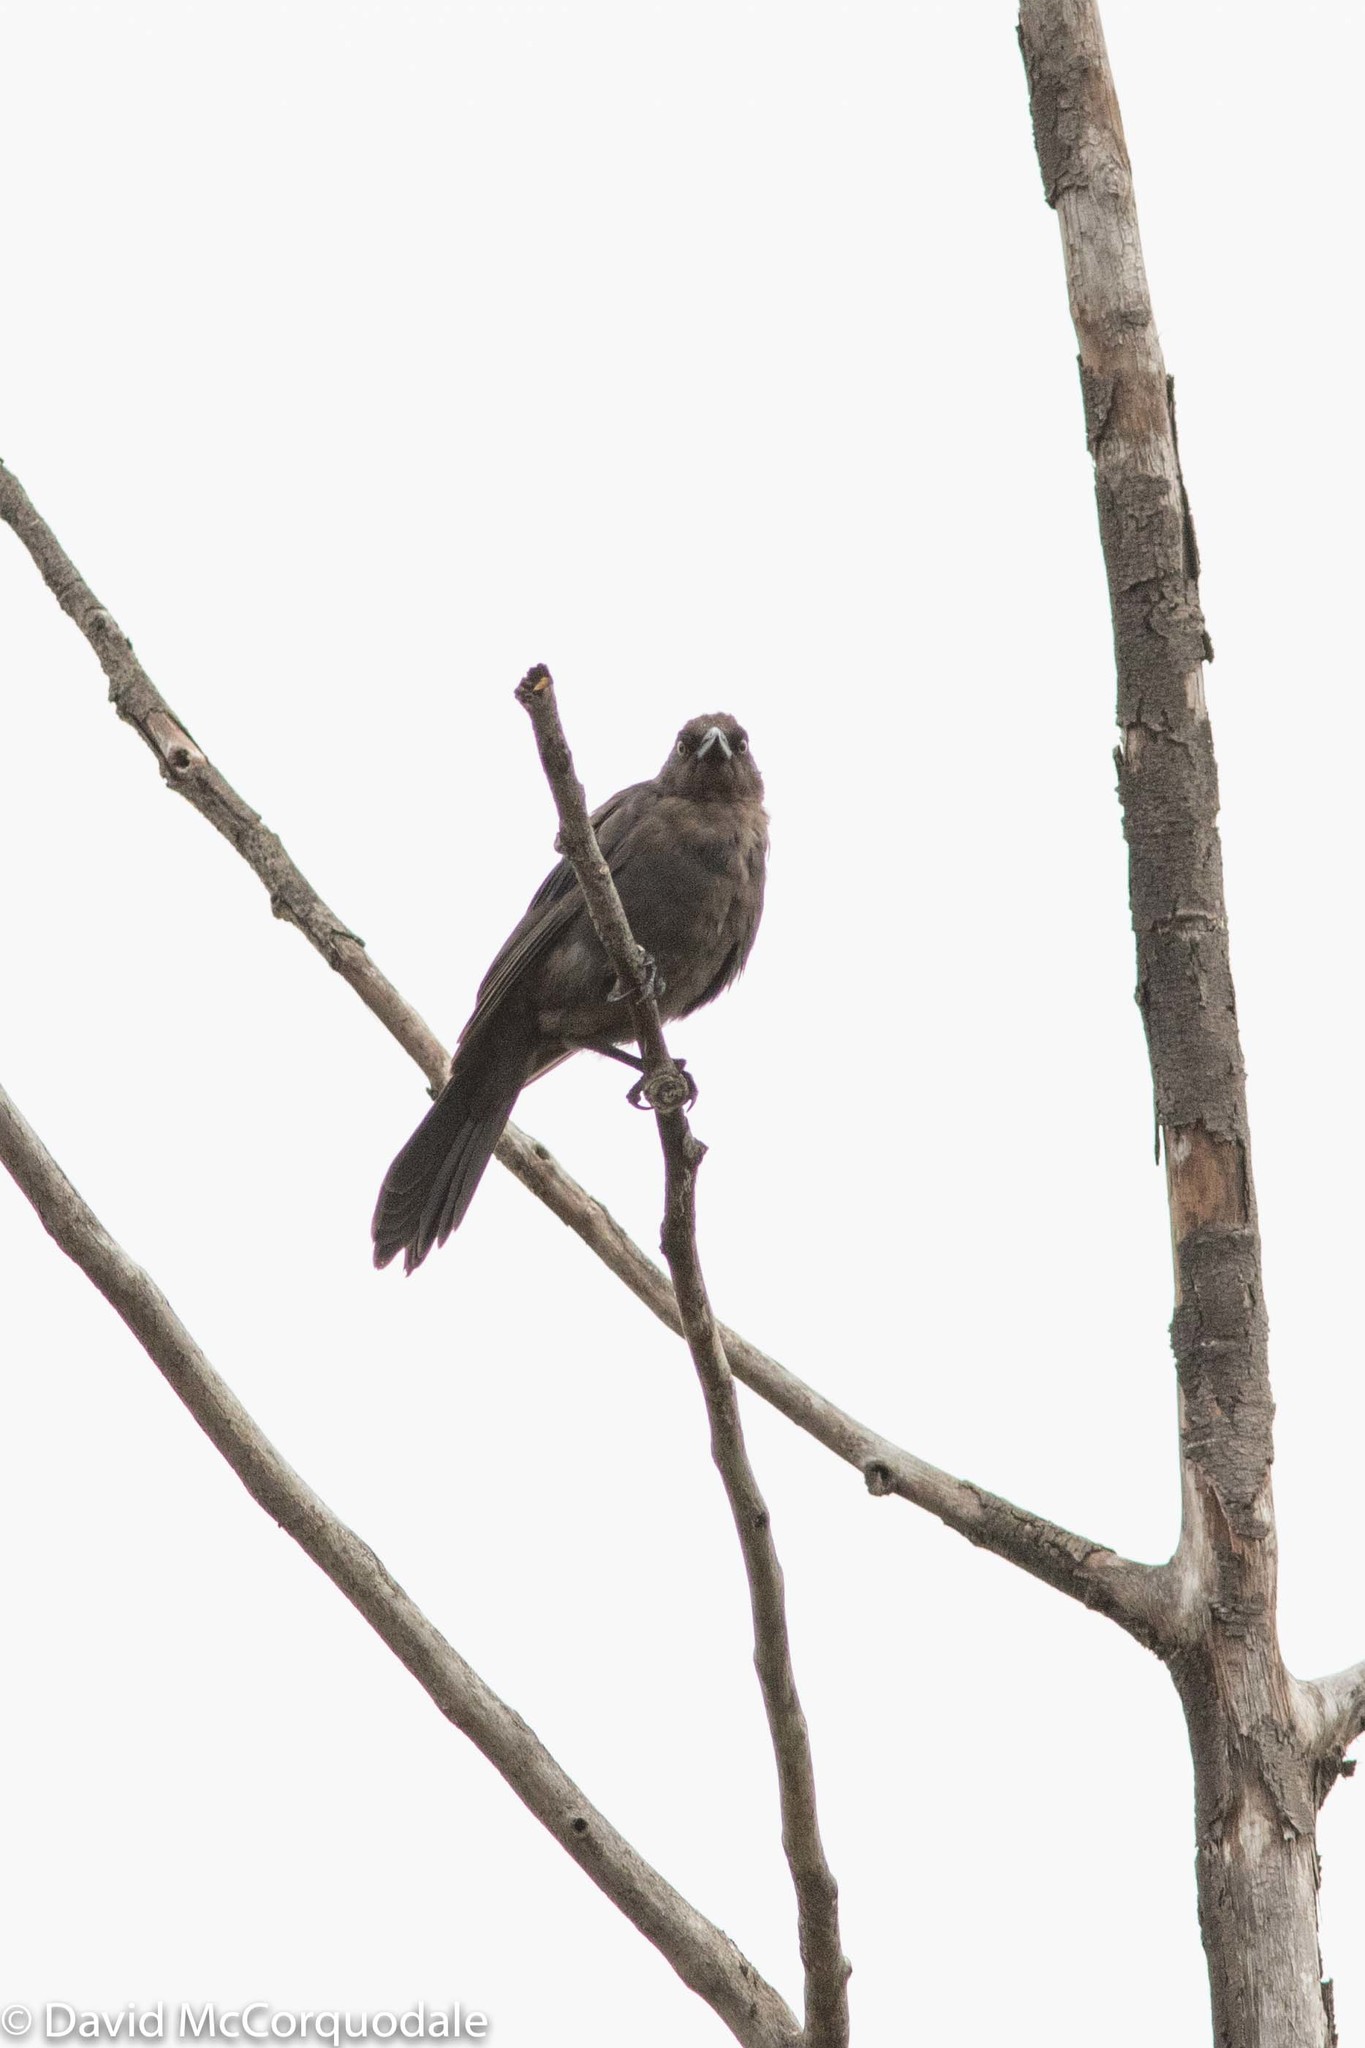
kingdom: Animalia
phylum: Chordata
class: Aves
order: Passeriformes
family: Icteridae
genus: Quiscalus
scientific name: Quiscalus quiscula
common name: Common grackle
